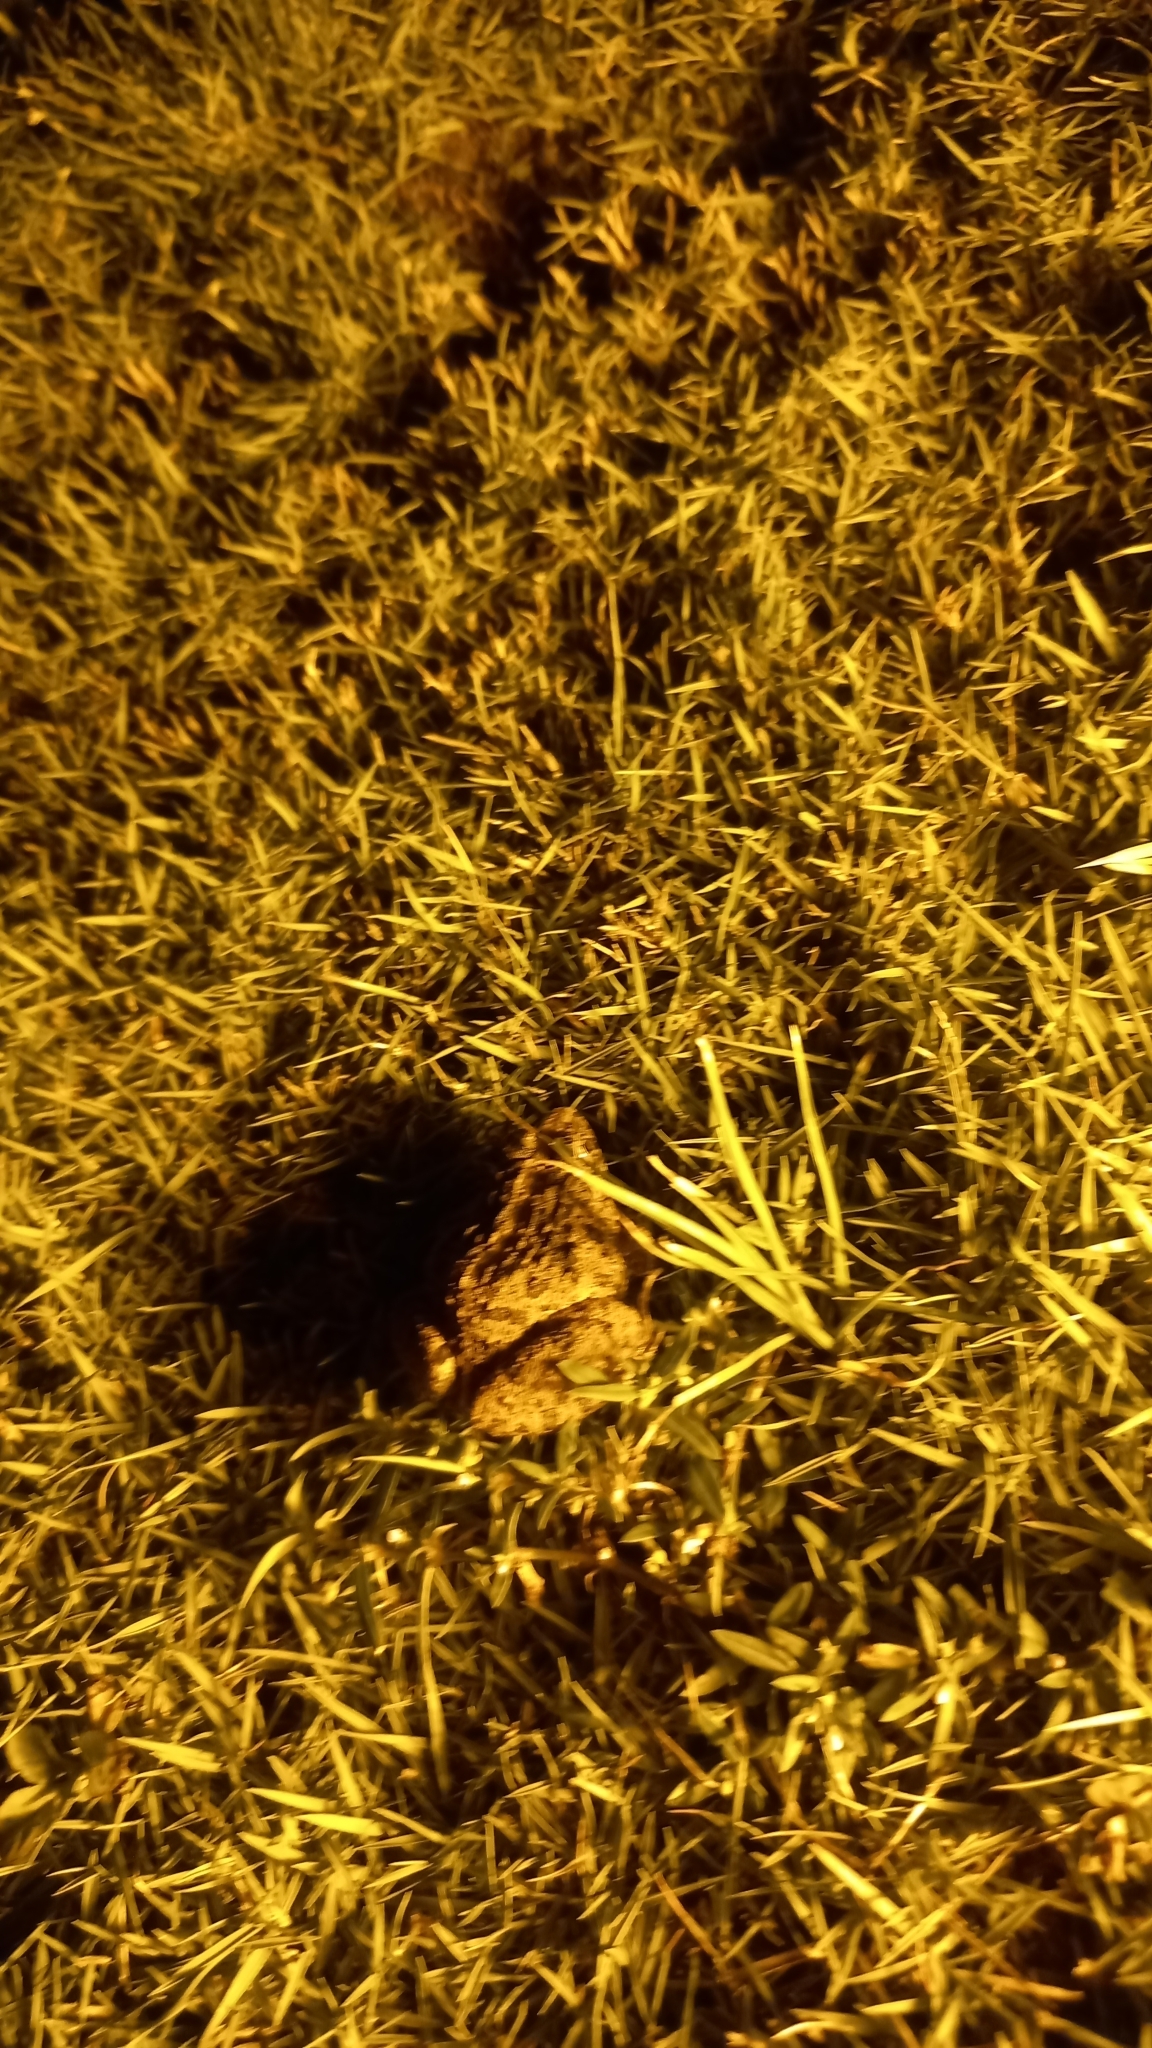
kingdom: Animalia
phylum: Chordata
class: Amphibia
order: Anura
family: Dicroglossidae
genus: Fejervarya
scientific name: Fejervarya limnocharis
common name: Asian grass frog/common pond frog/field frog/grass frog/indian rice frog
